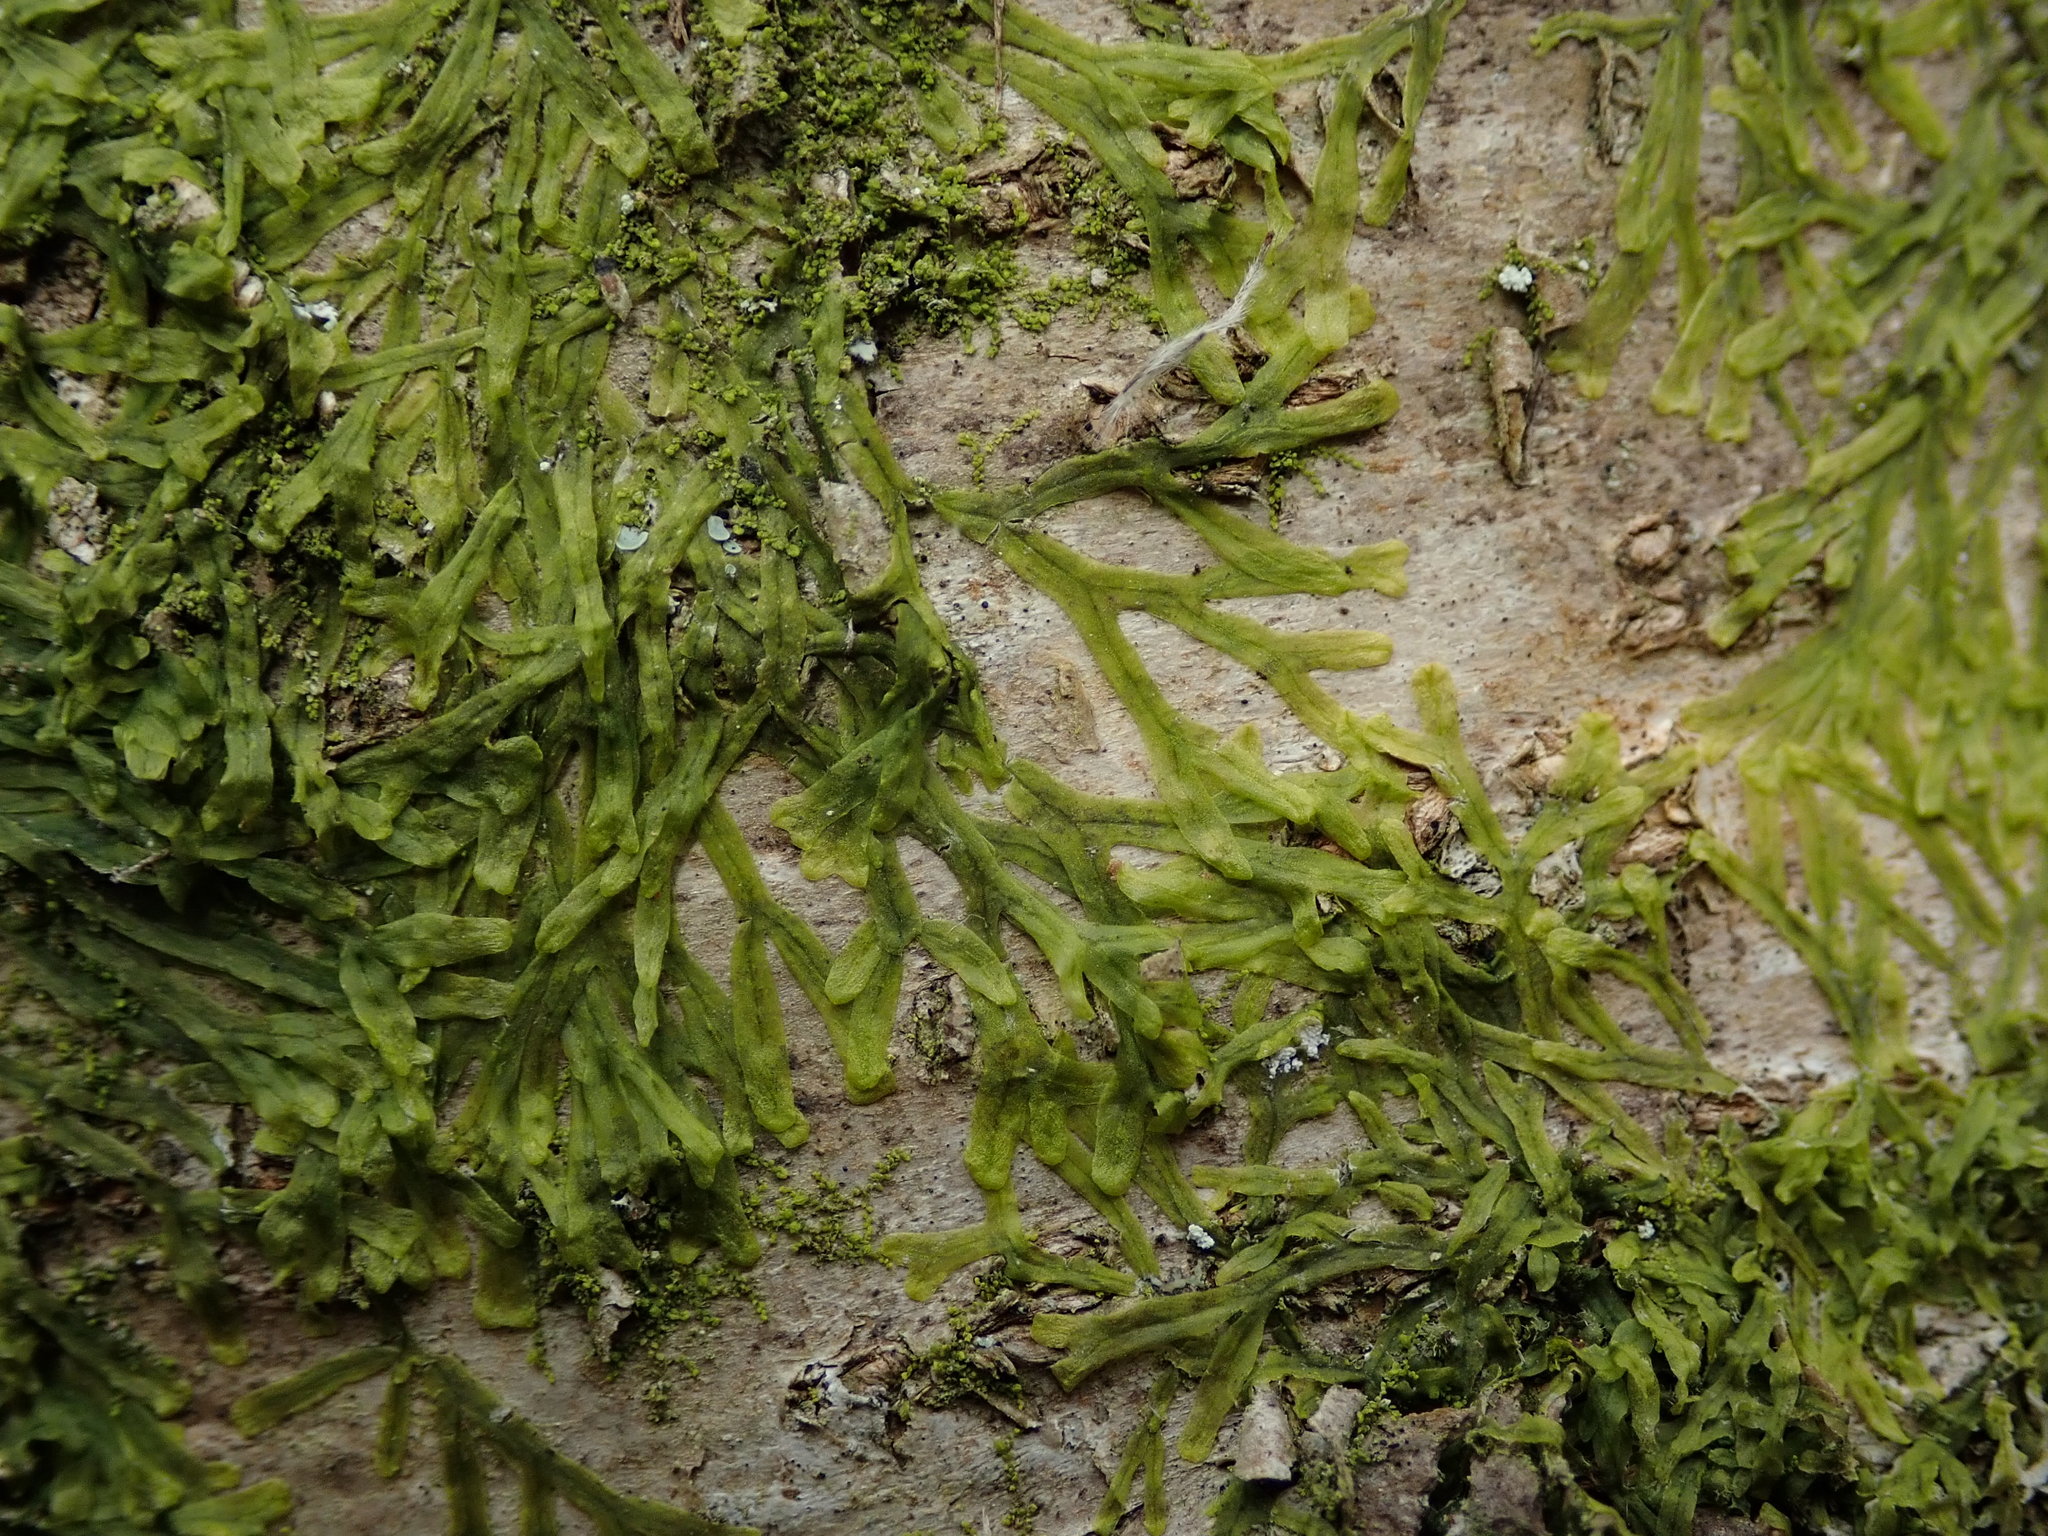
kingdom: Plantae
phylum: Marchantiophyta
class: Jungermanniopsida
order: Metzgeriales
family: Metzgeriaceae
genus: Metzgeria
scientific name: Metzgeria furcata
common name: Forked veilwort
